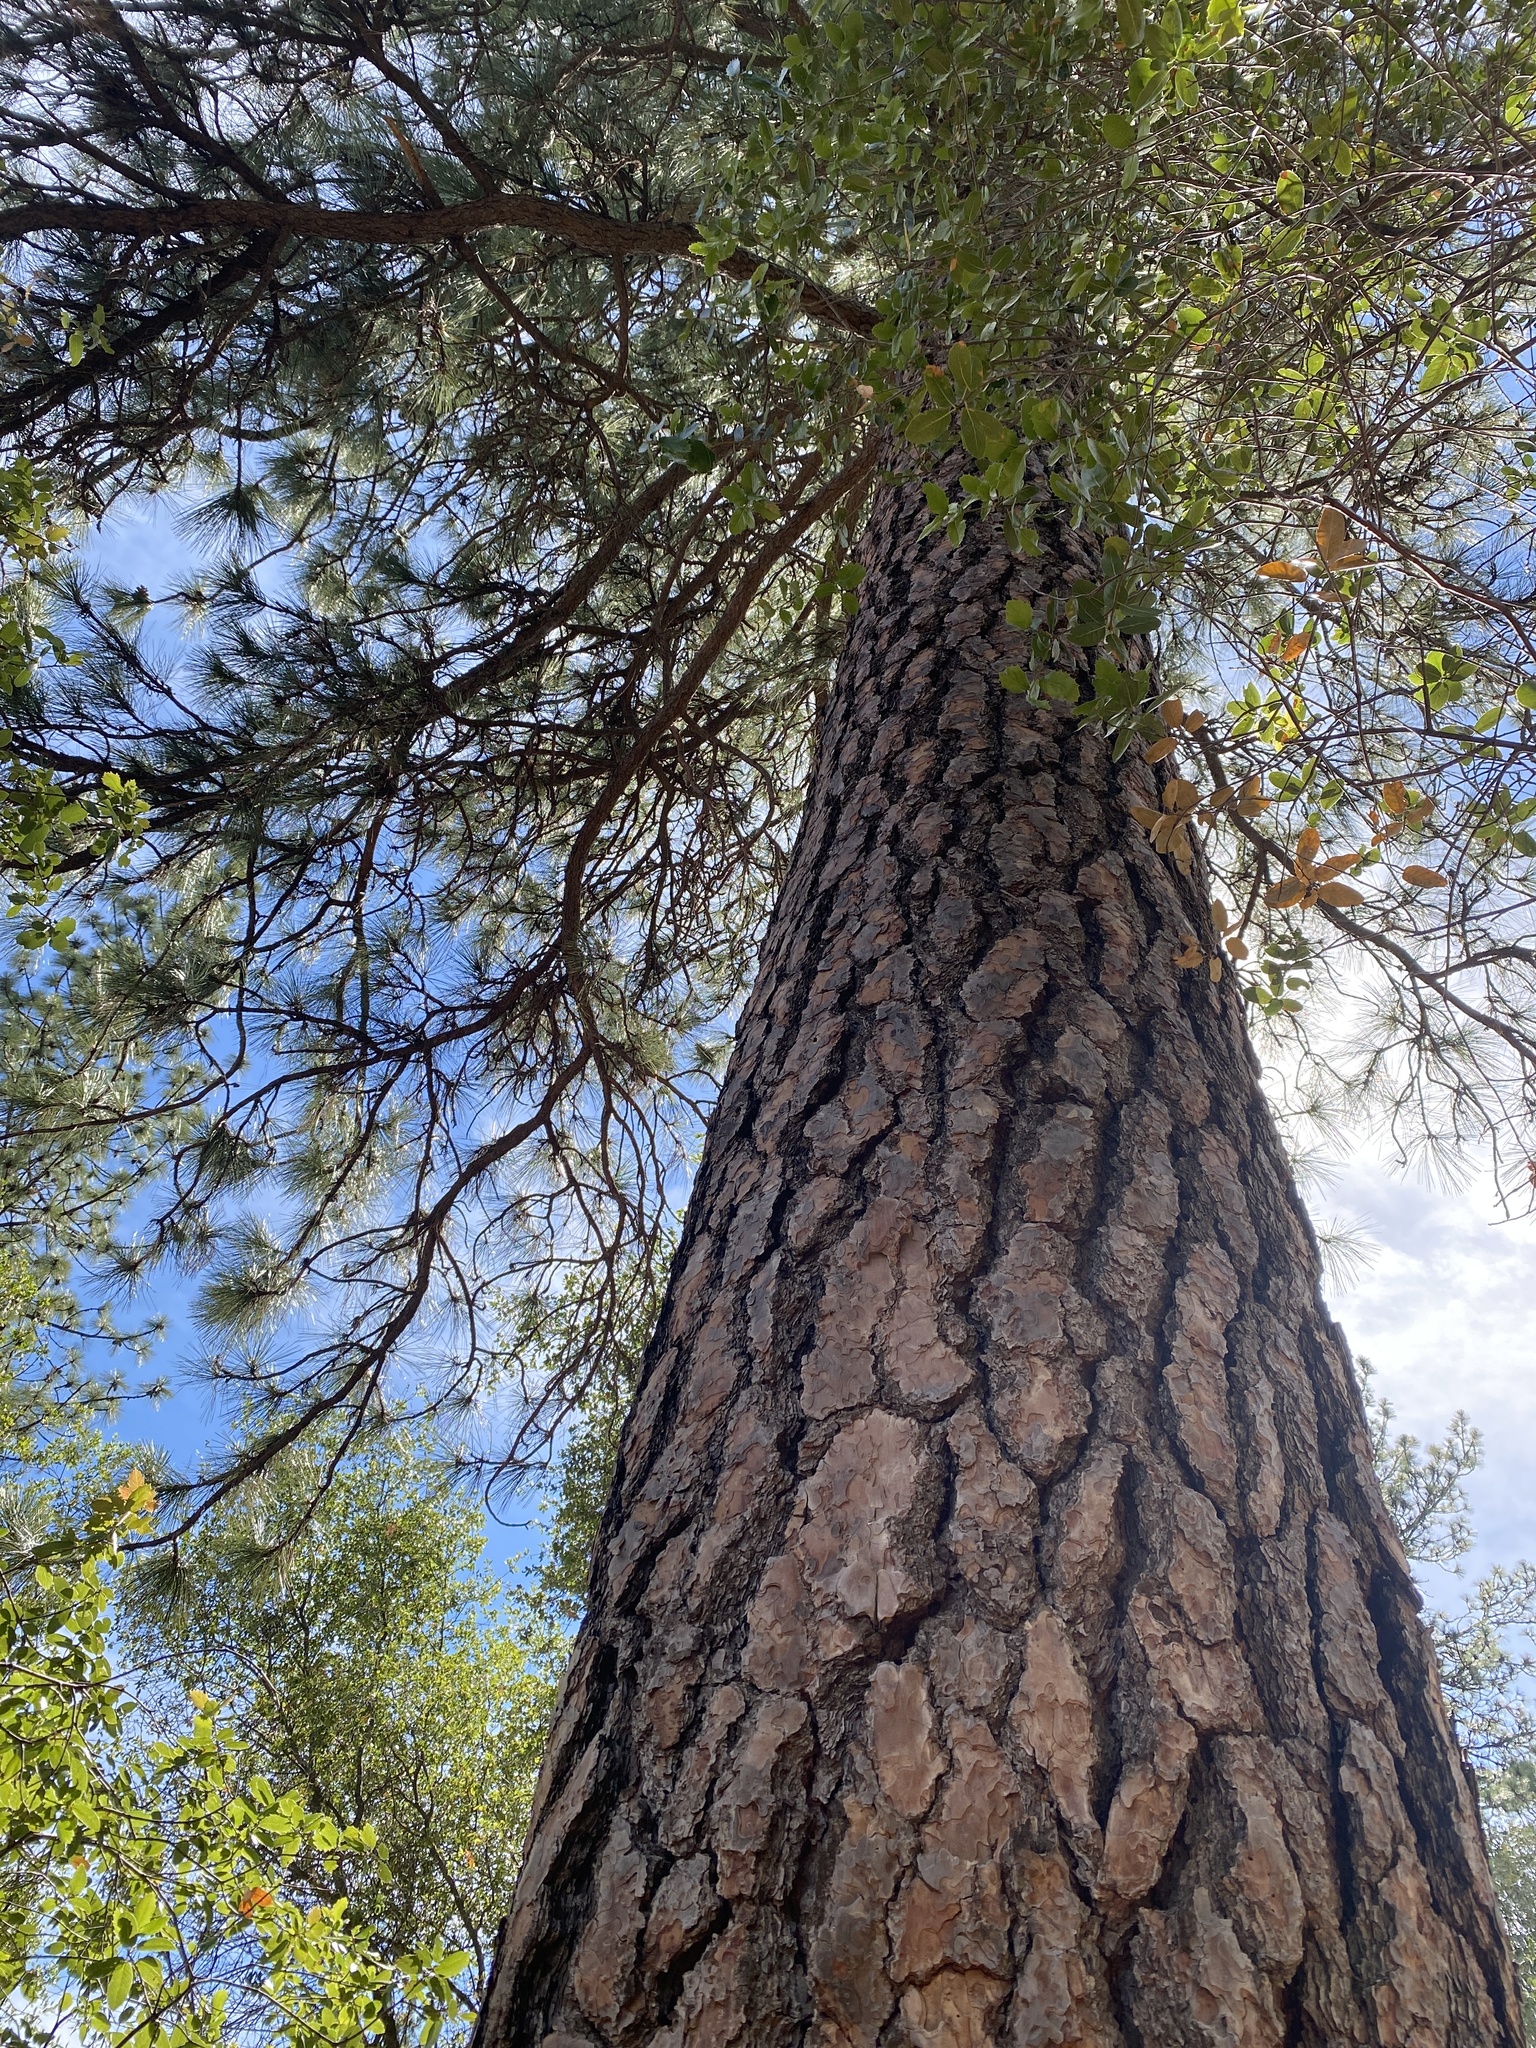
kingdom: Plantae
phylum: Tracheophyta
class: Pinopsida
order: Pinales
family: Pinaceae
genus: Pinus
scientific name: Pinus ponderosa
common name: Western yellow-pine
